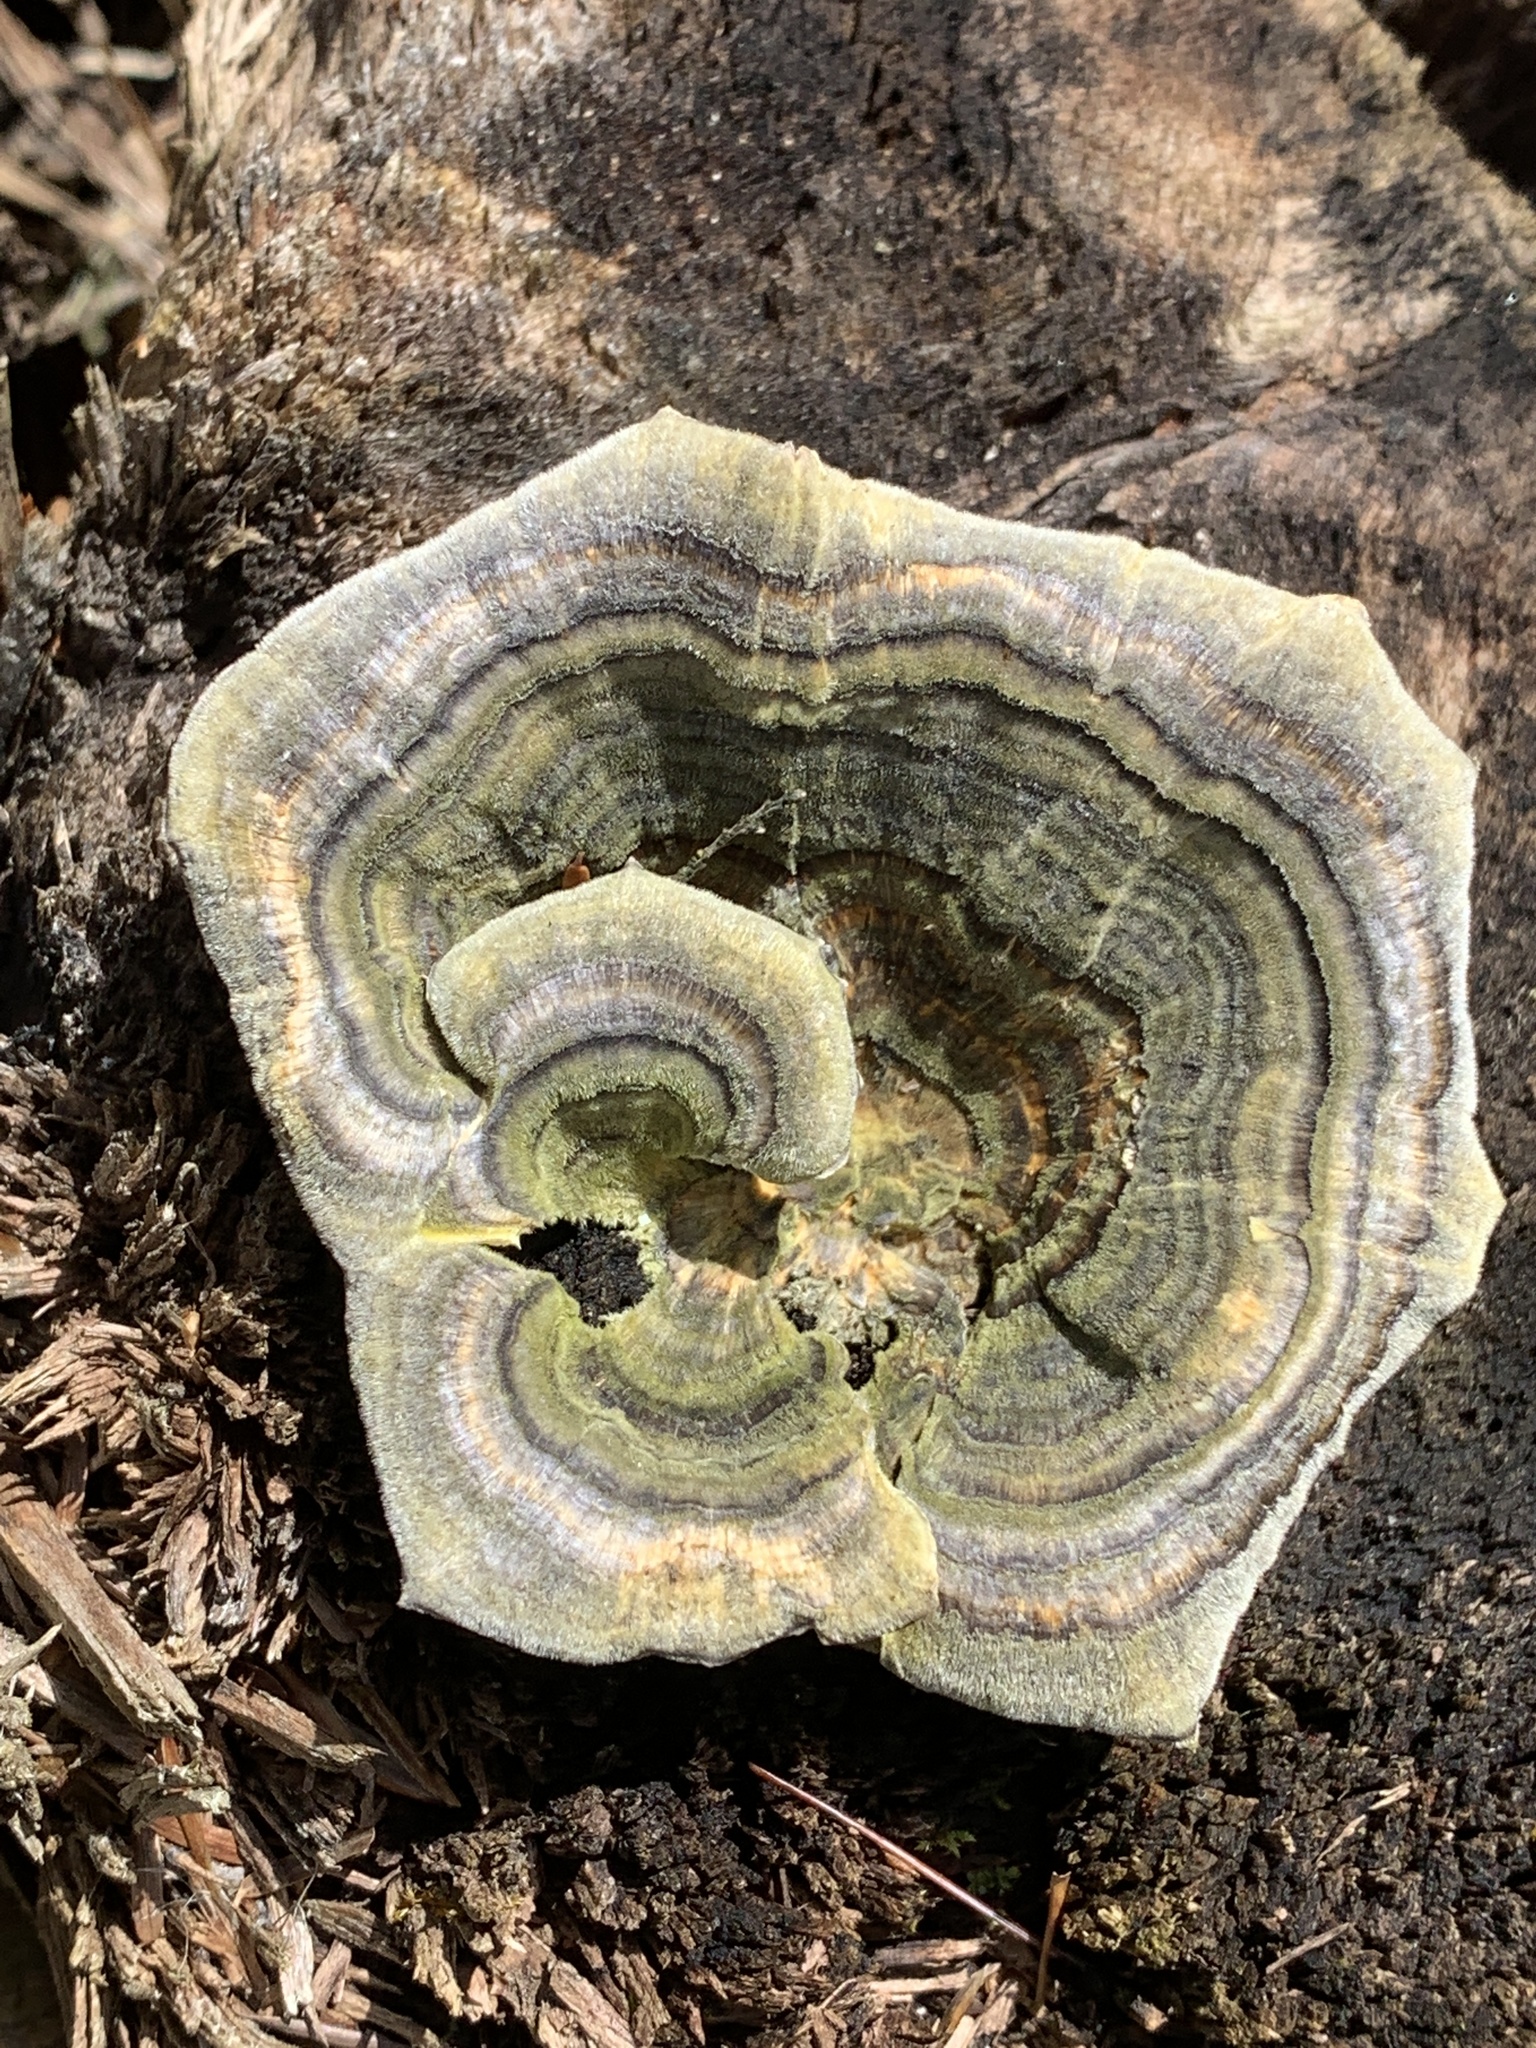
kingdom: Fungi
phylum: Basidiomycota
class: Agaricomycetes
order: Polyporales
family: Polyporaceae
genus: Trametes
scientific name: Trametes versicolor
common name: Turkeytail
